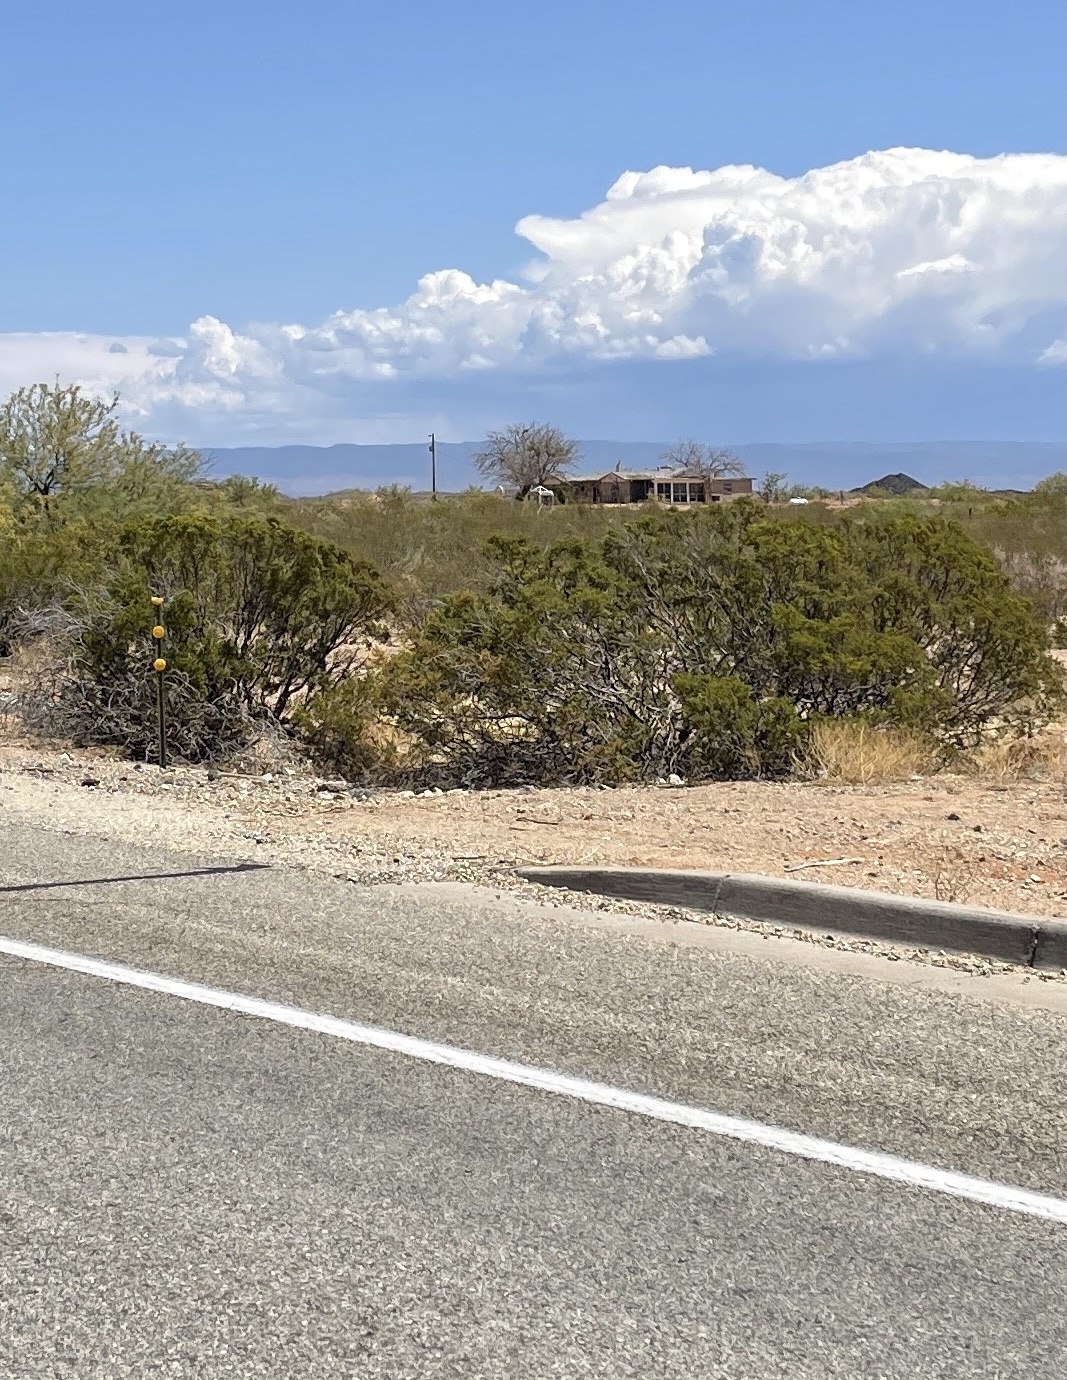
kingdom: Plantae
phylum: Tracheophyta
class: Magnoliopsida
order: Zygophyllales
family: Zygophyllaceae
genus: Larrea
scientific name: Larrea tridentata
